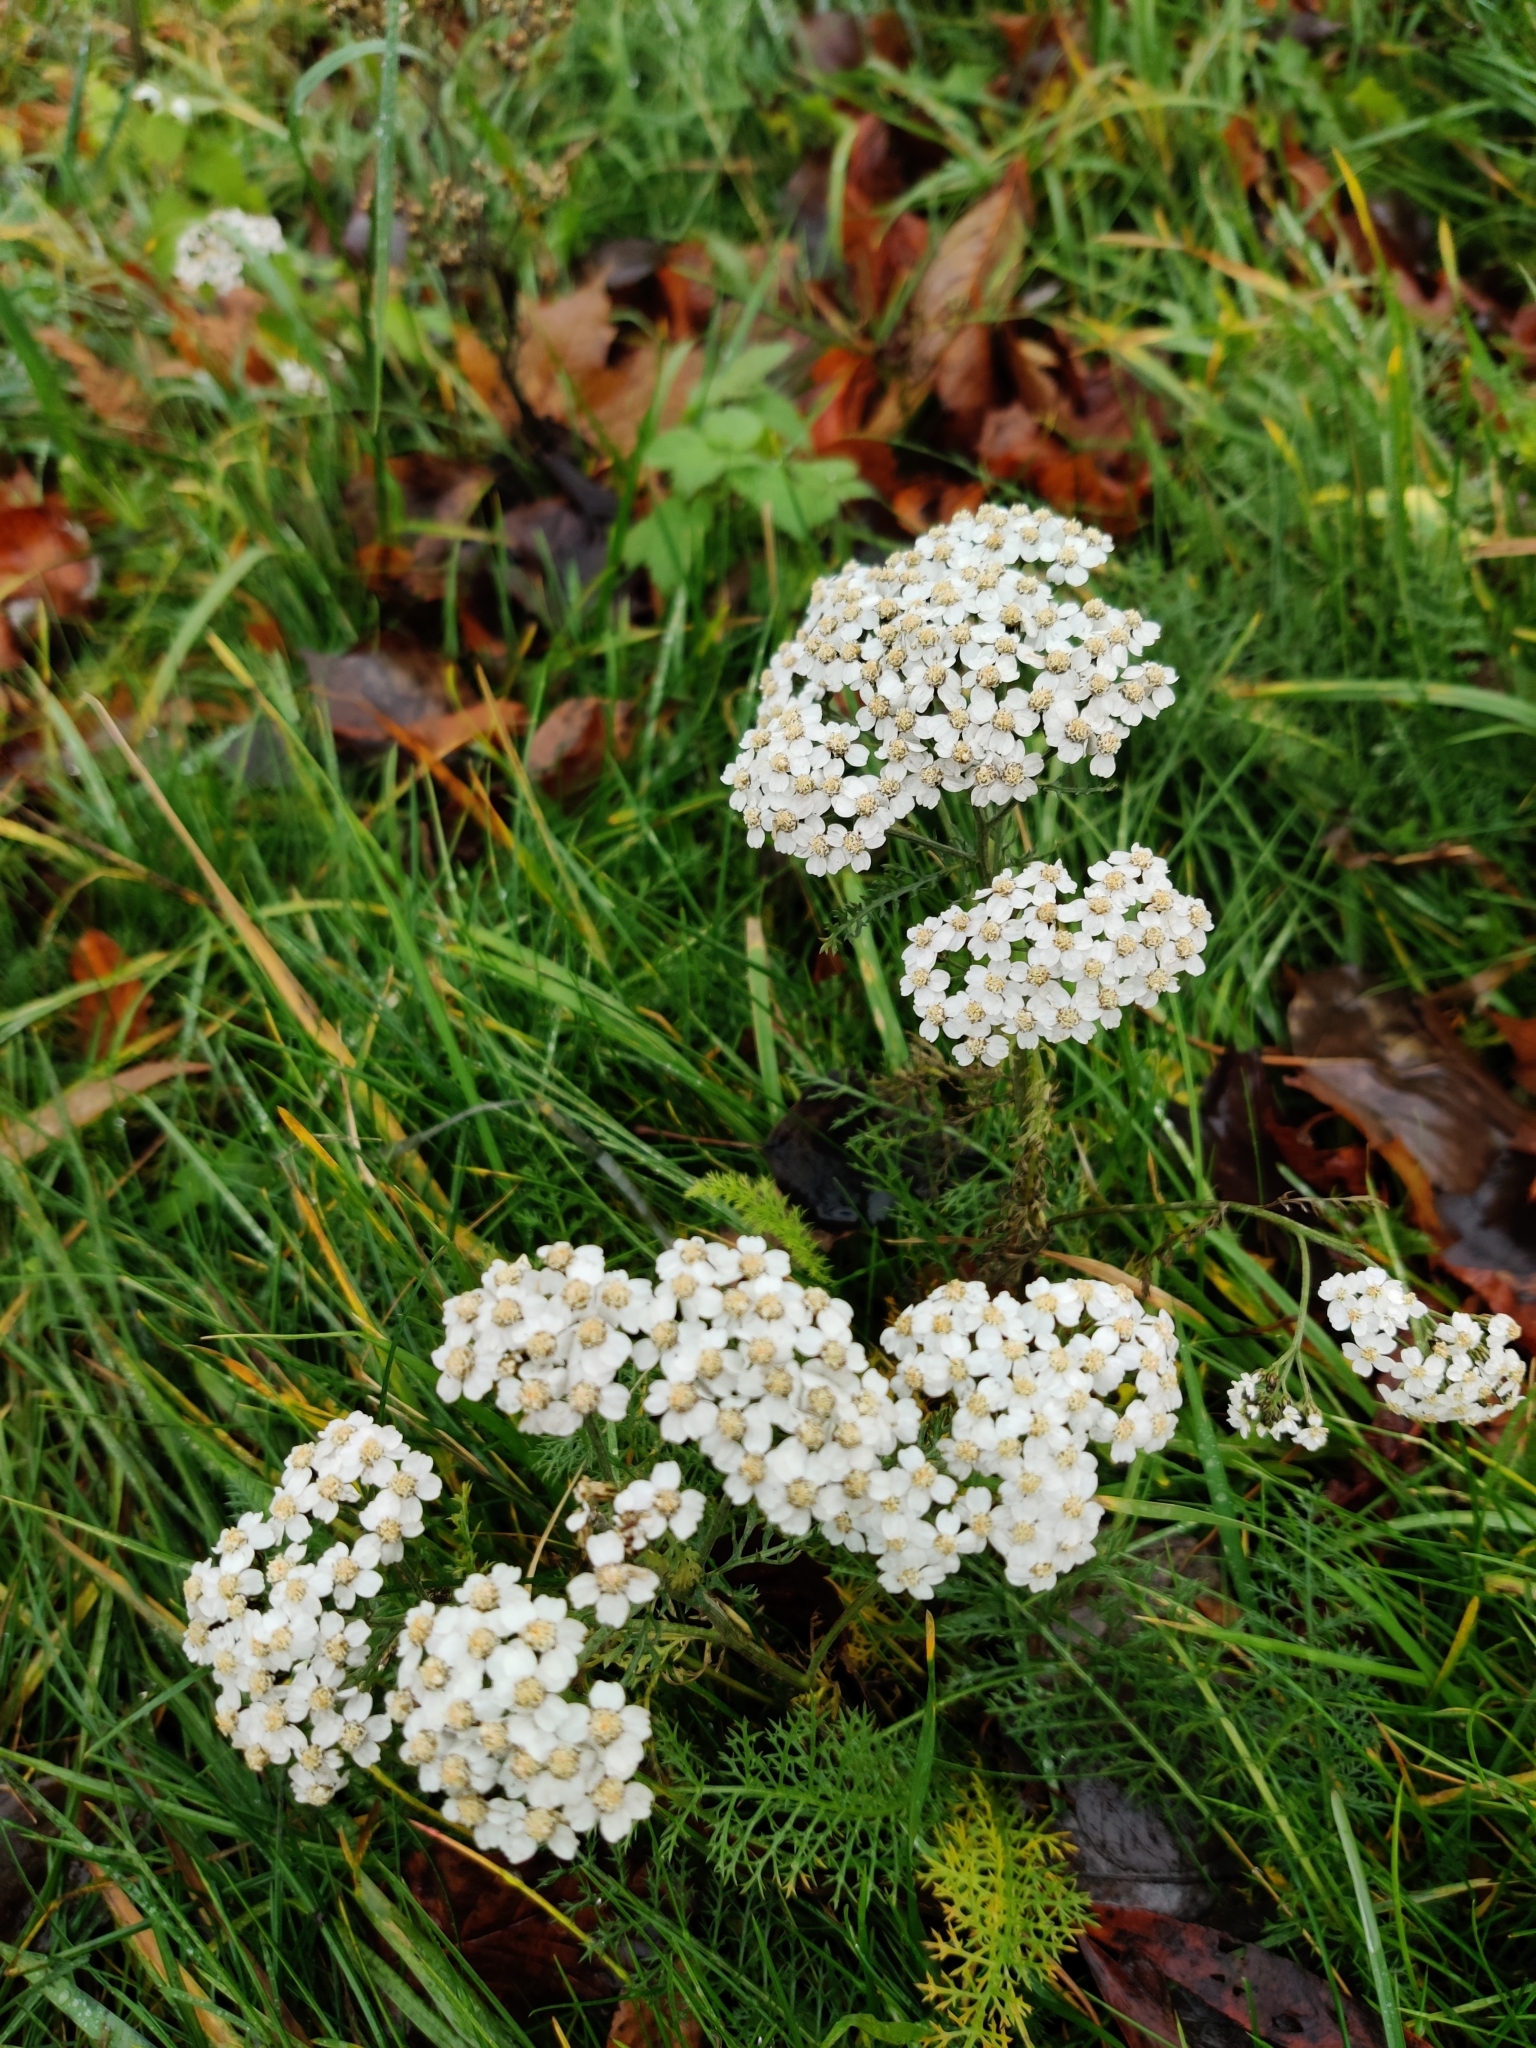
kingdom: Plantae
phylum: Tracheophyta
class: Magnoliopsida
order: Asterales
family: Asteraceae
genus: Achillea
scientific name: Achillea millefolium
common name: Yarrow
